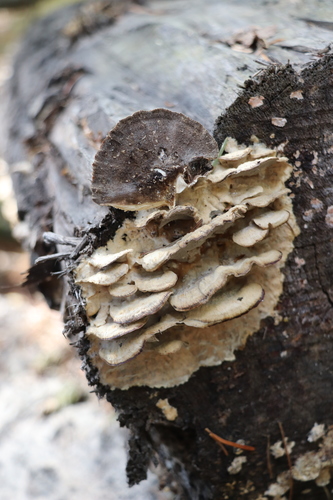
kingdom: Fungi
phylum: Basidiomycota
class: Agaricomycetes
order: Polyporales
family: Phanerochaetaceae
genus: Bjerkandera
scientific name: Bjerkandera adusta
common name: Smoky bracket
